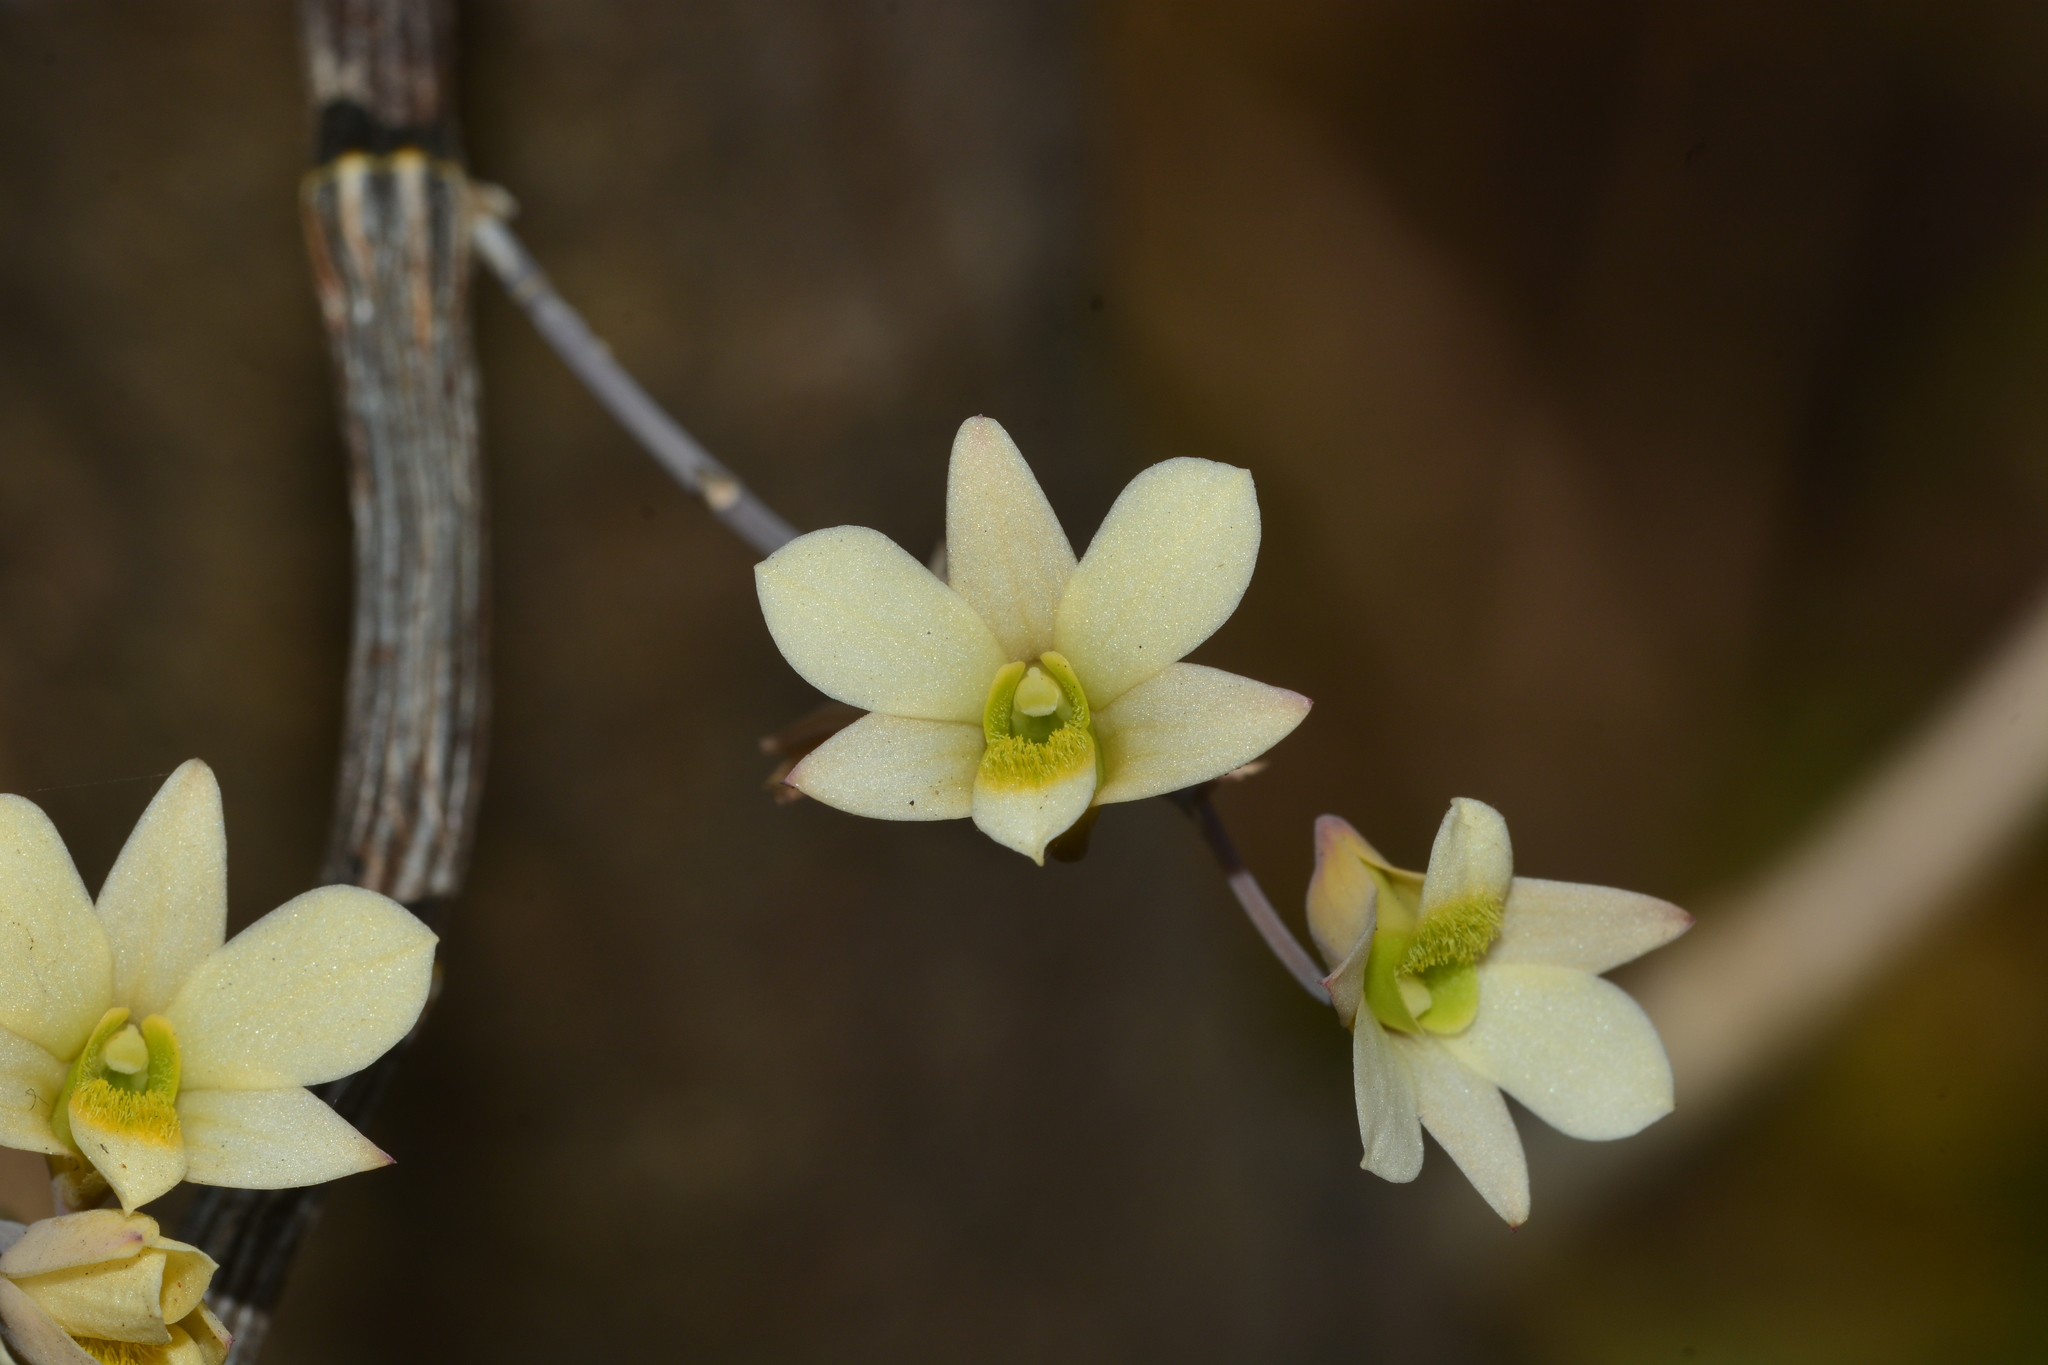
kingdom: Plantae
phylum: Tracheophyta
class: Liliopsida
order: Asparagales
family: Orchidaceae
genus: Dendrobium
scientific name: Dendrobium ovatum
